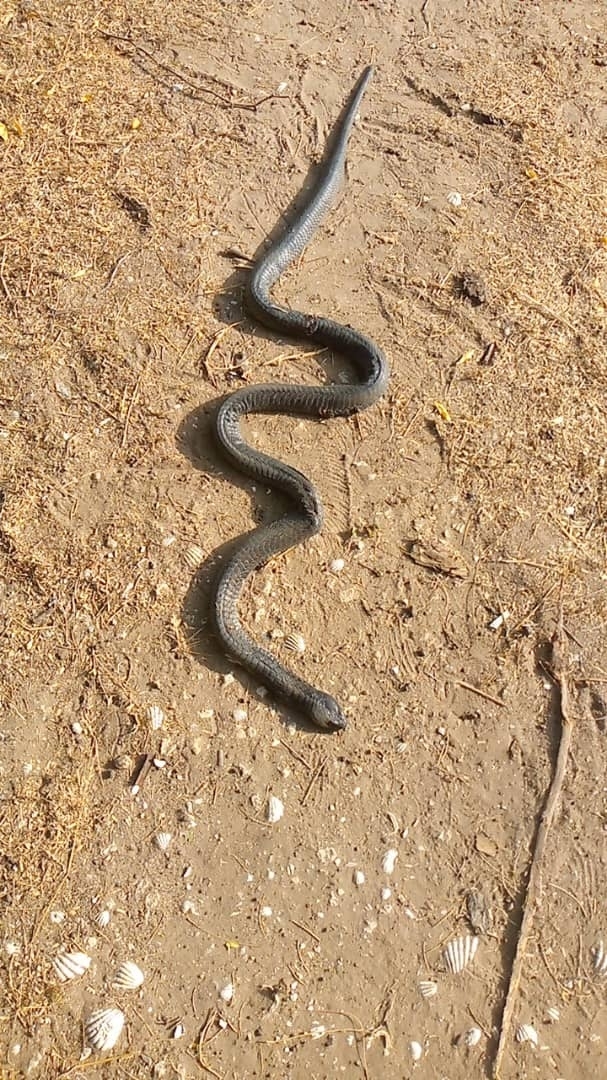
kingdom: Animalia
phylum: Chordata
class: Squamata
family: Elapidae
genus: Naja
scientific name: Naja nigricollis
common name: Black-necked spitting cobra
